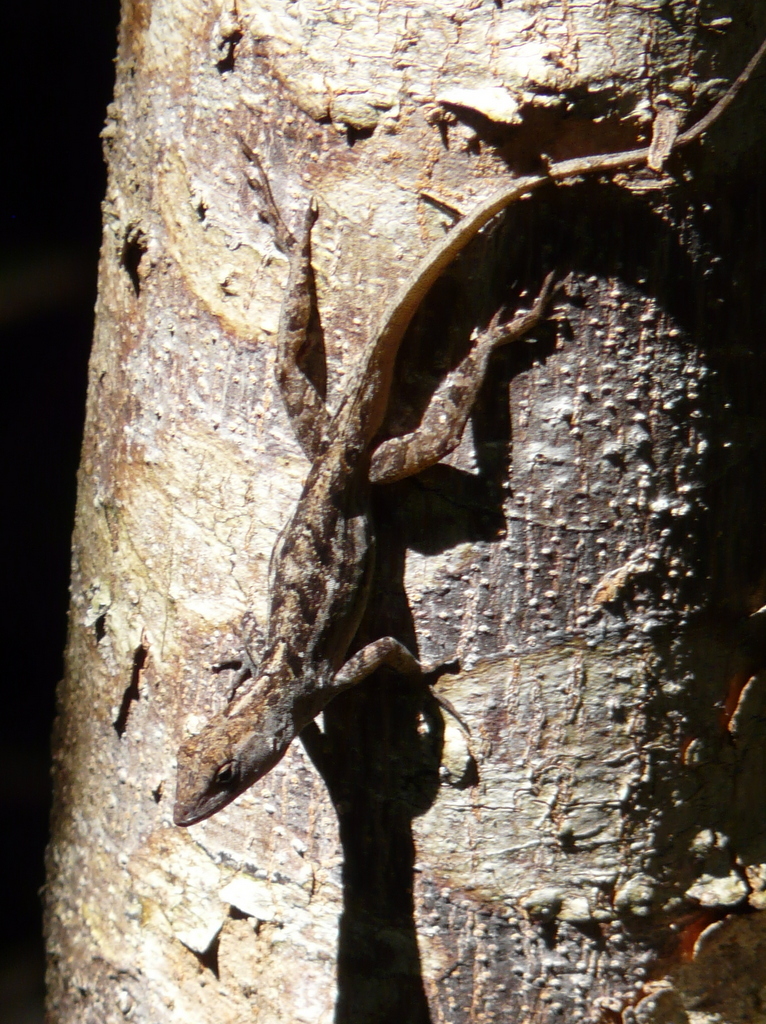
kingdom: Animalia
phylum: Chordata
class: Squamata
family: Dactyloidae
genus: Anolis
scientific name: Anolis sagrei
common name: Brown anole
